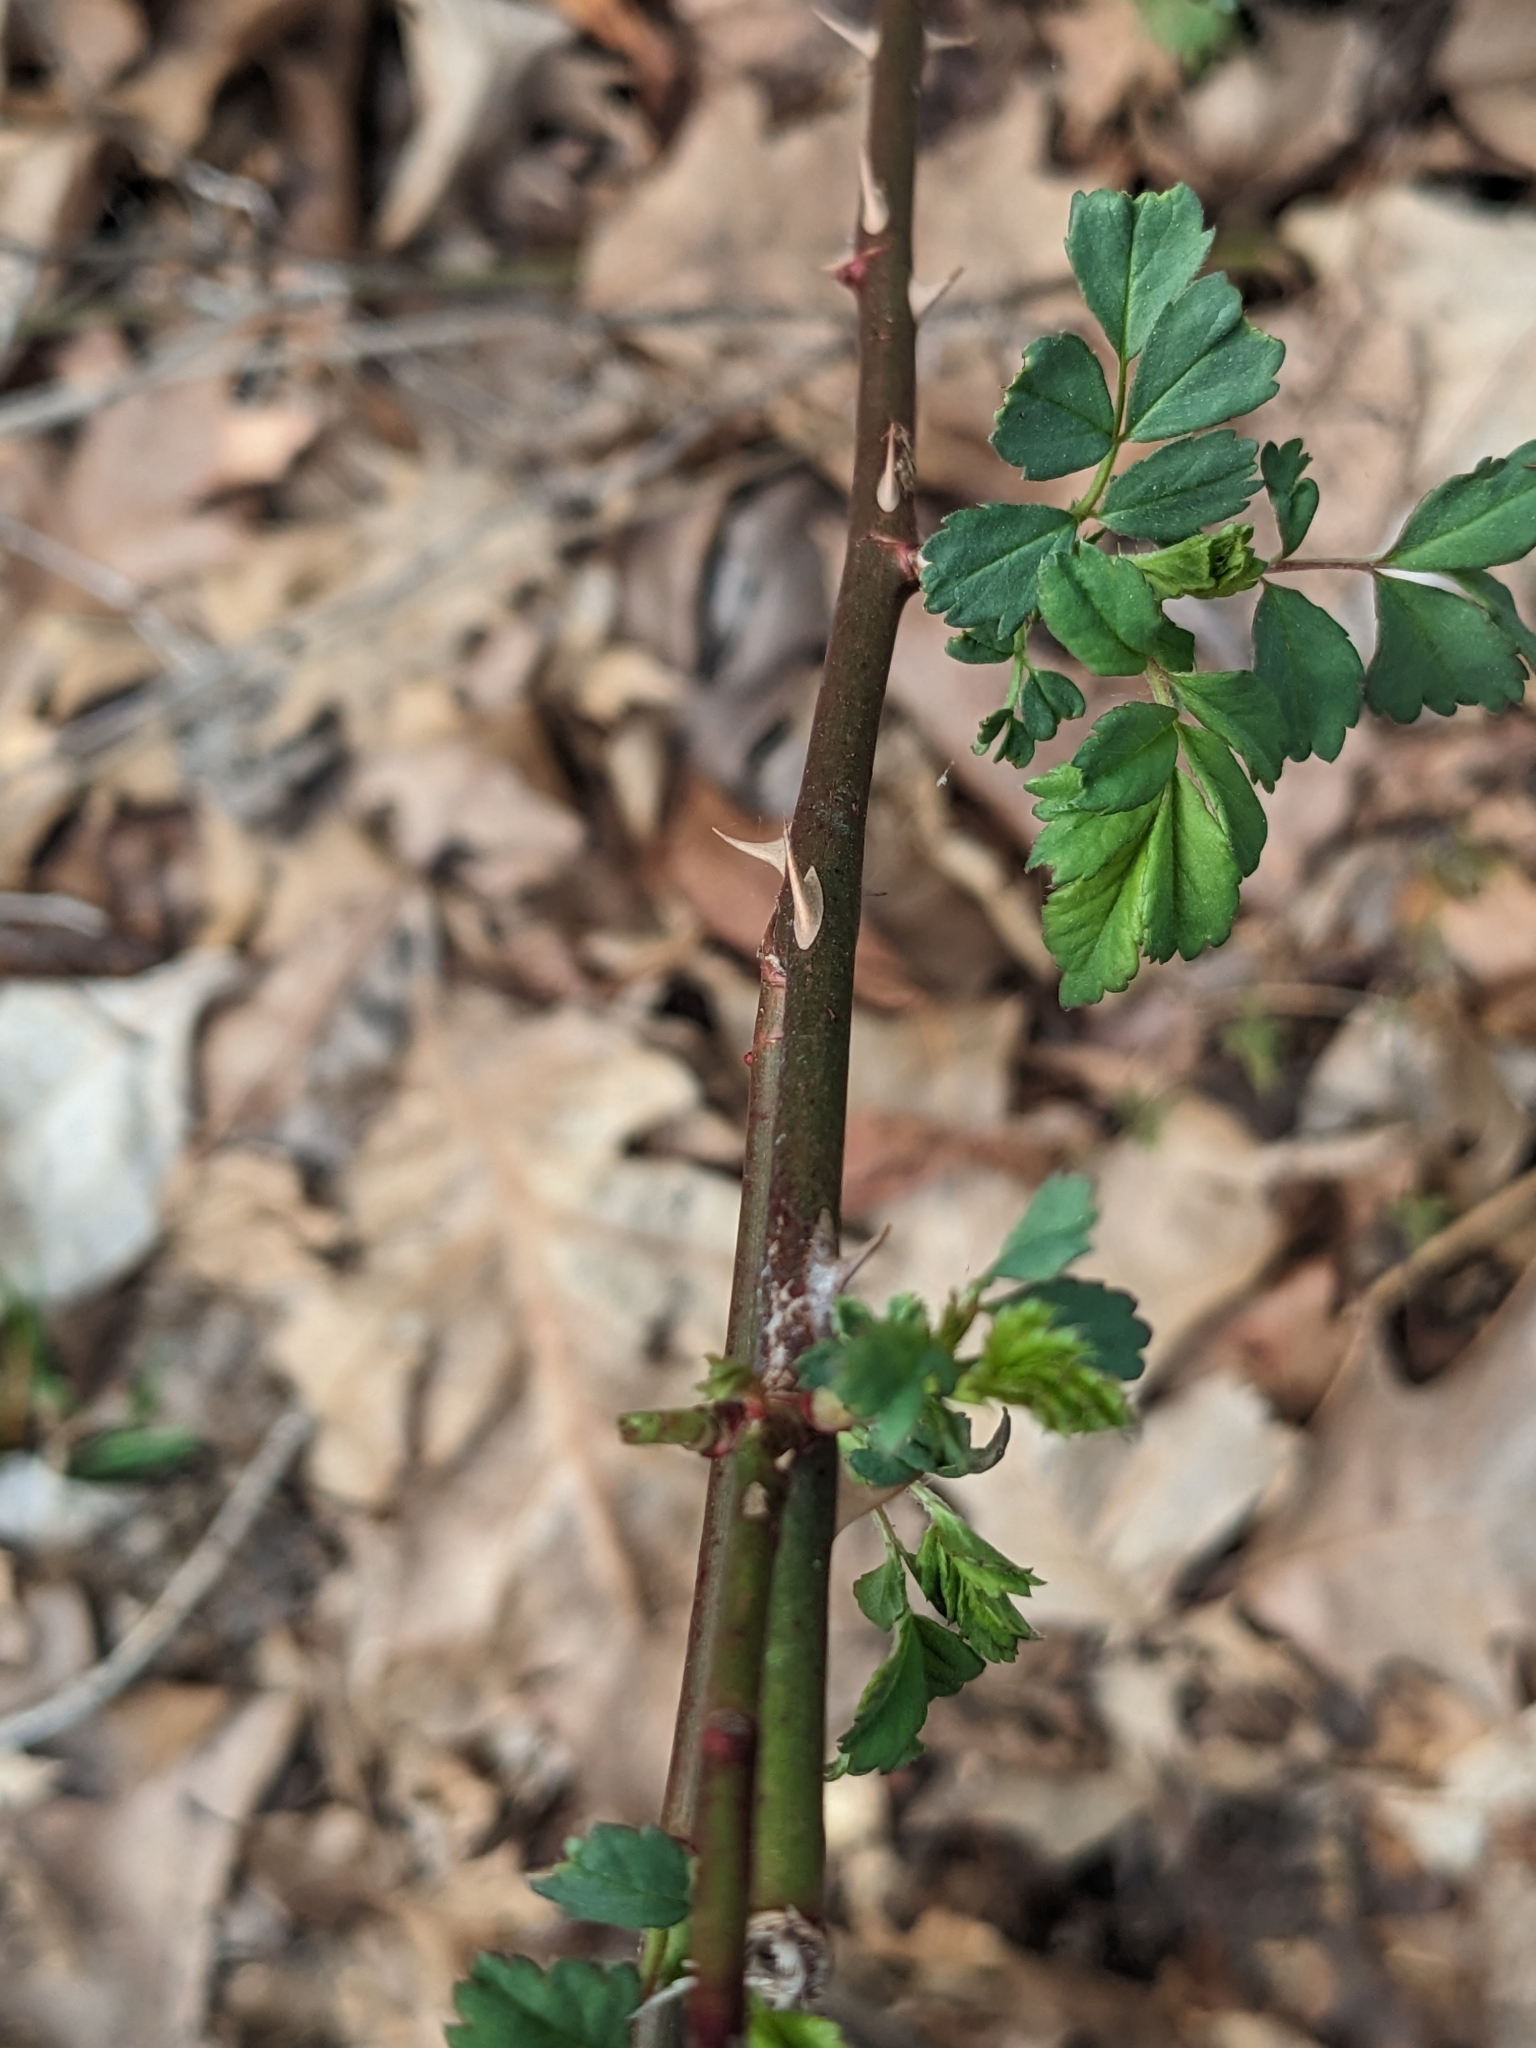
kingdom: Plantae
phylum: Tracheophyta
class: Magnoliopsida
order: Rosales
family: Rosaceae
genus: Rosa
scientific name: Rosa multiflora
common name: Multiflora rose
